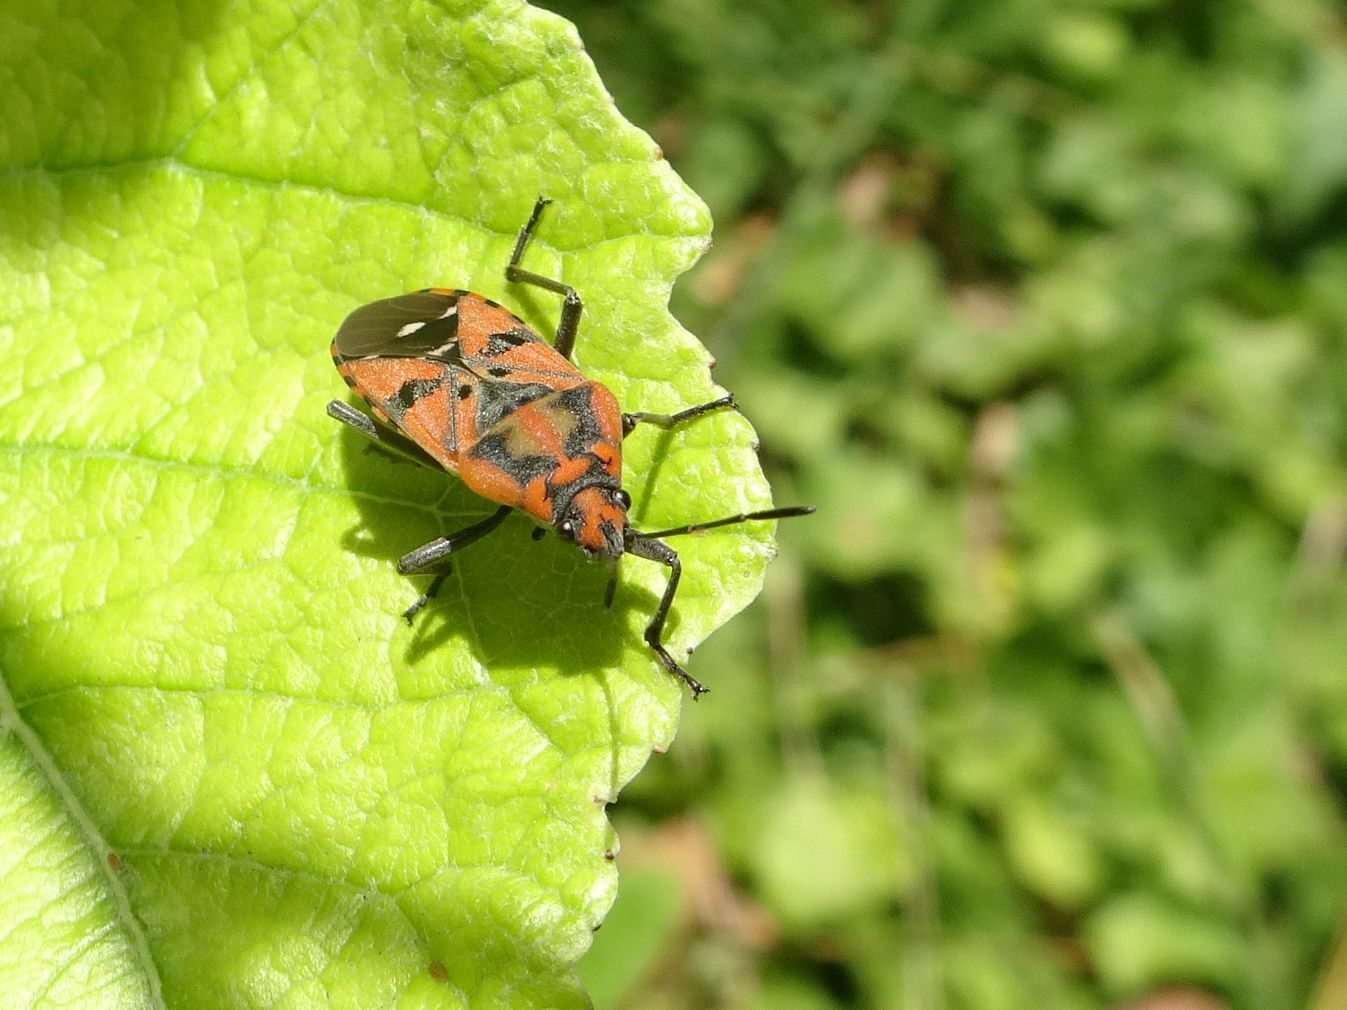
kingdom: Animalia
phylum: Arthropoda
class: Insecta
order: Hemiptera
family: Lygaeidae
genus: Spilostethus
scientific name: Spilostethus pandurus
